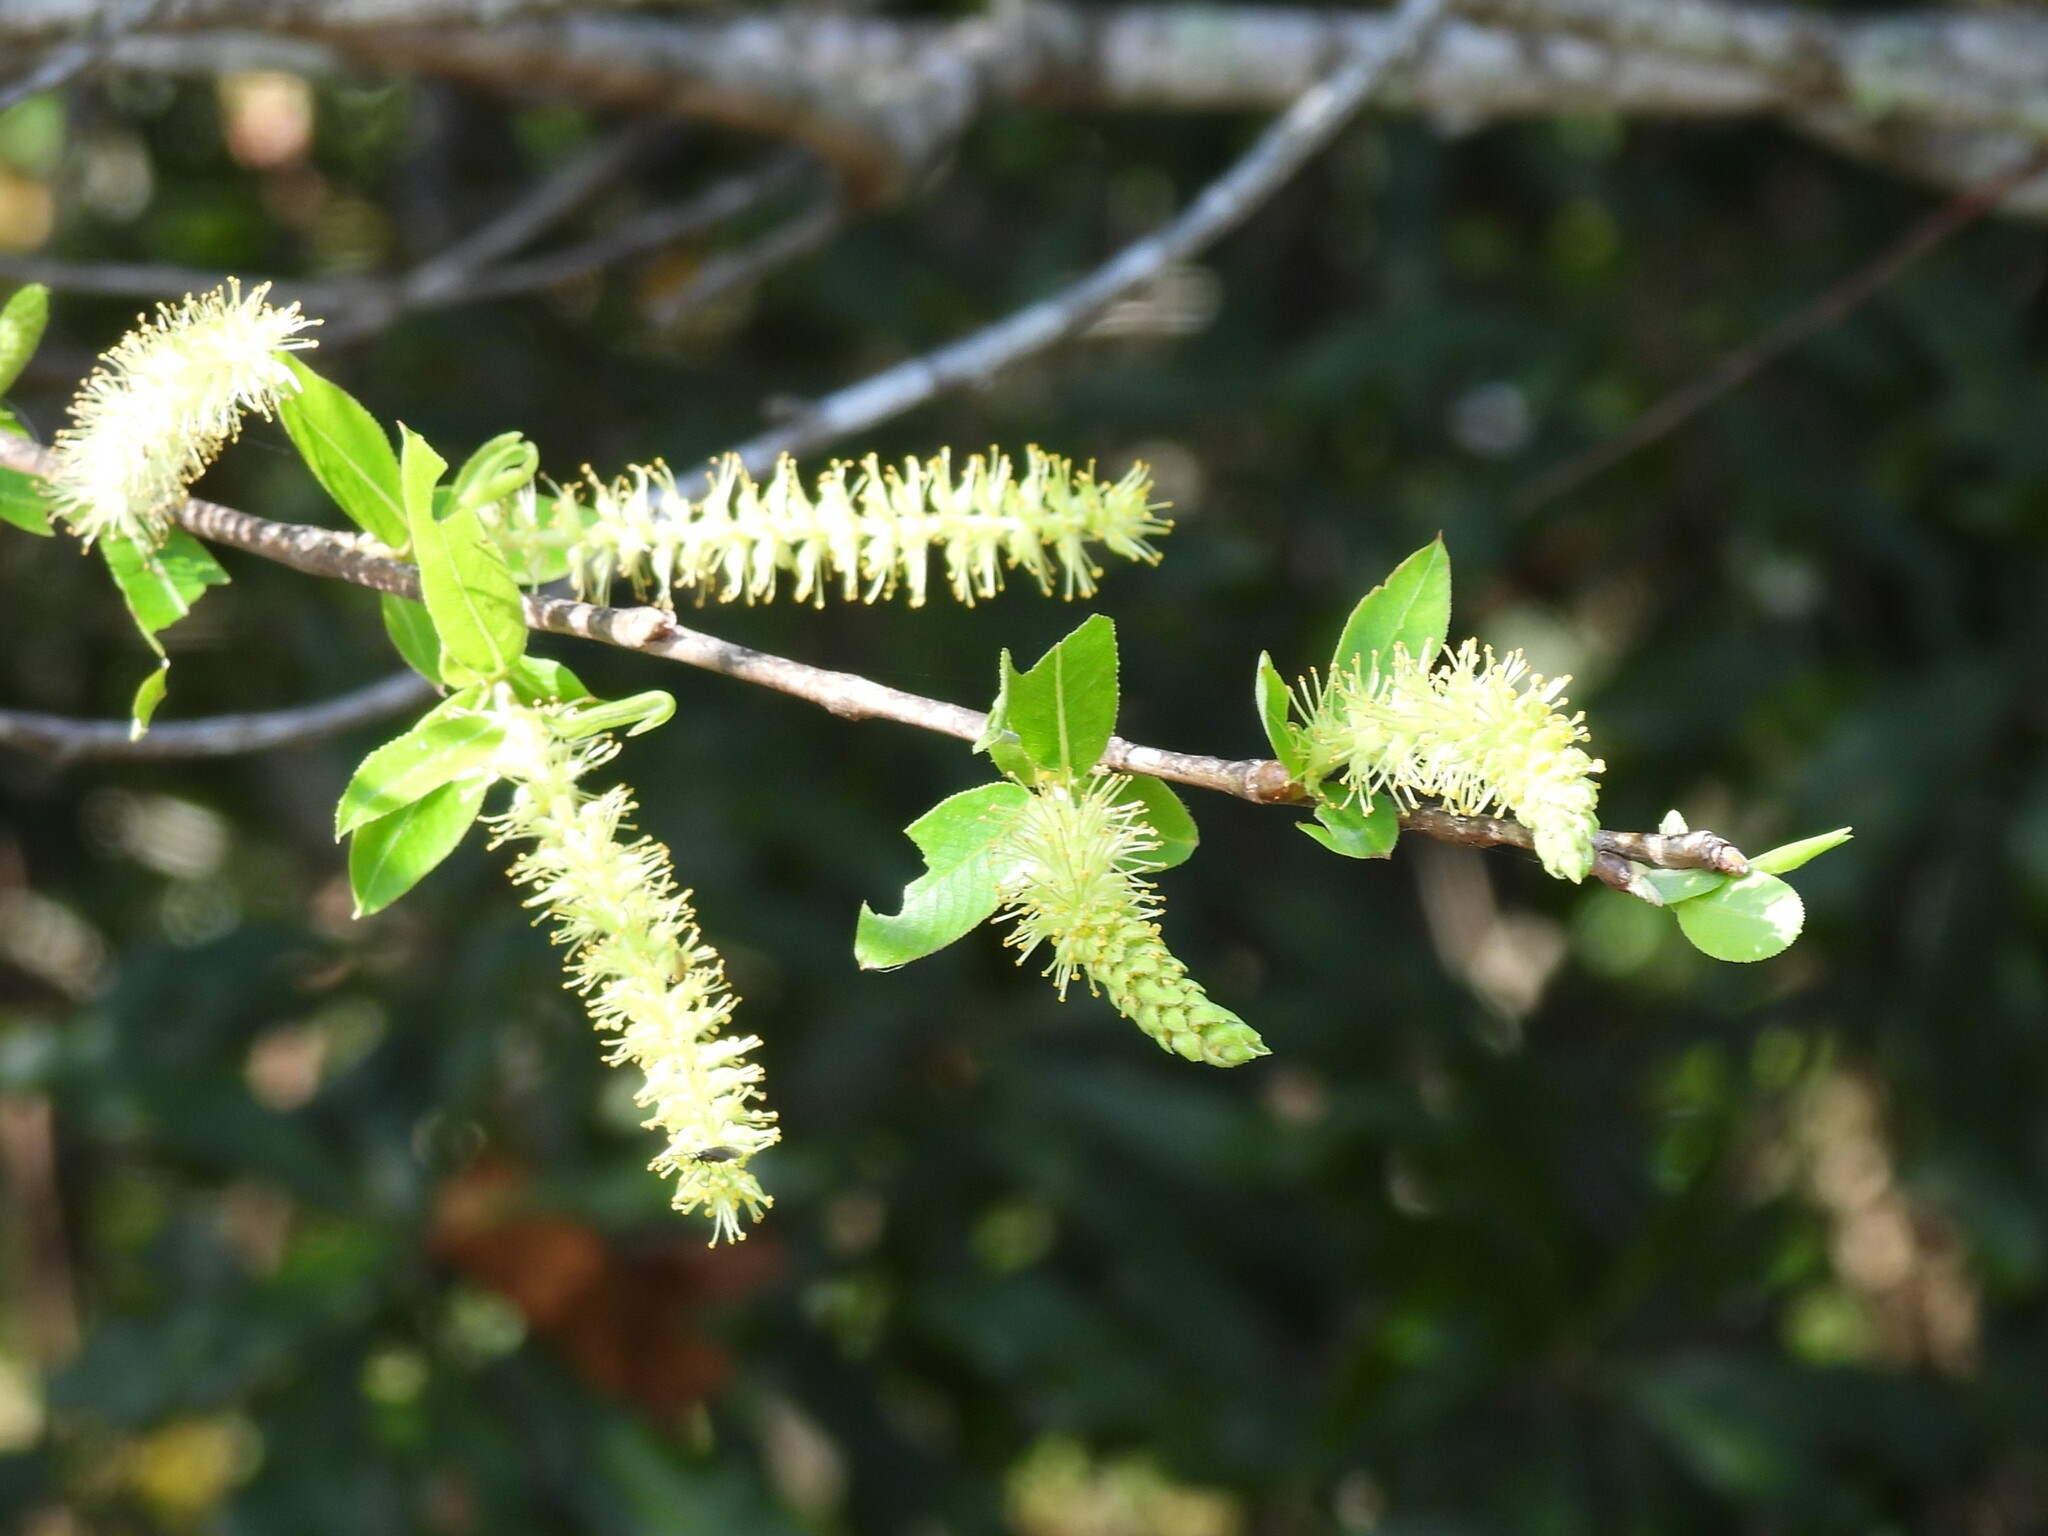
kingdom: Plantae
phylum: Tracheophyta
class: Magnoliopsida
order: Malpighiales
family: Salicaceae
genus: Salix
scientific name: Salix caroliniana
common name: Carolina willow
